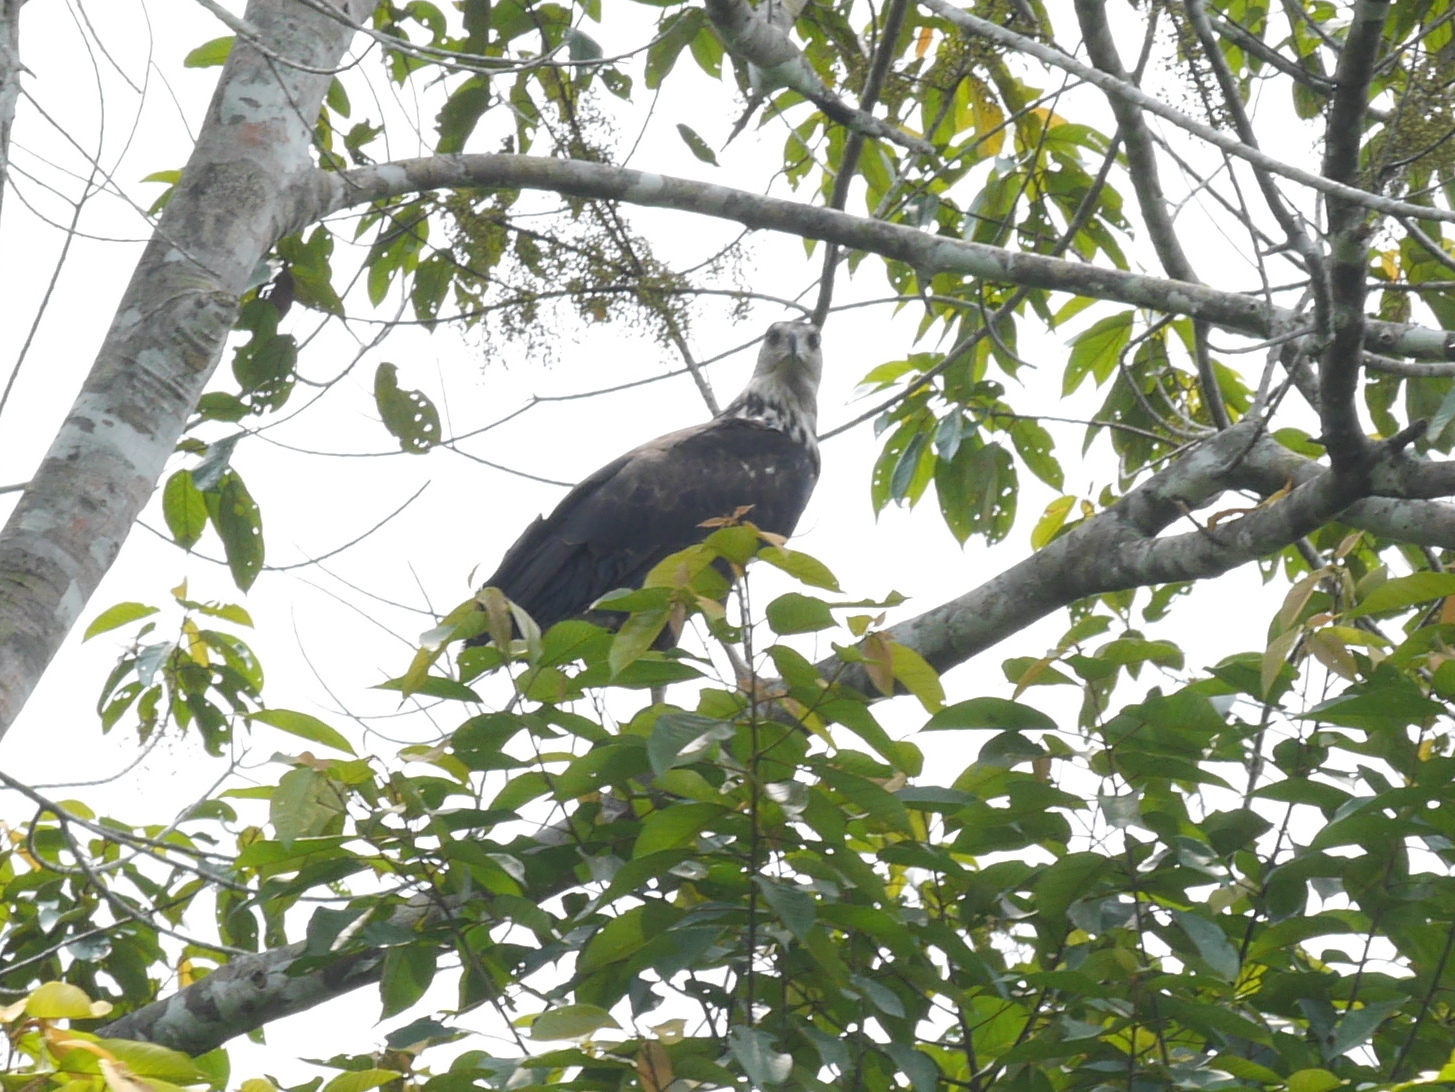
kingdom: Animalia
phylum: Chordata
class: Aves
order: Accipitriformes
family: Accipitridae
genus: Haliaeetus
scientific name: Haliaeetus vocifer
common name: African fish eagle
